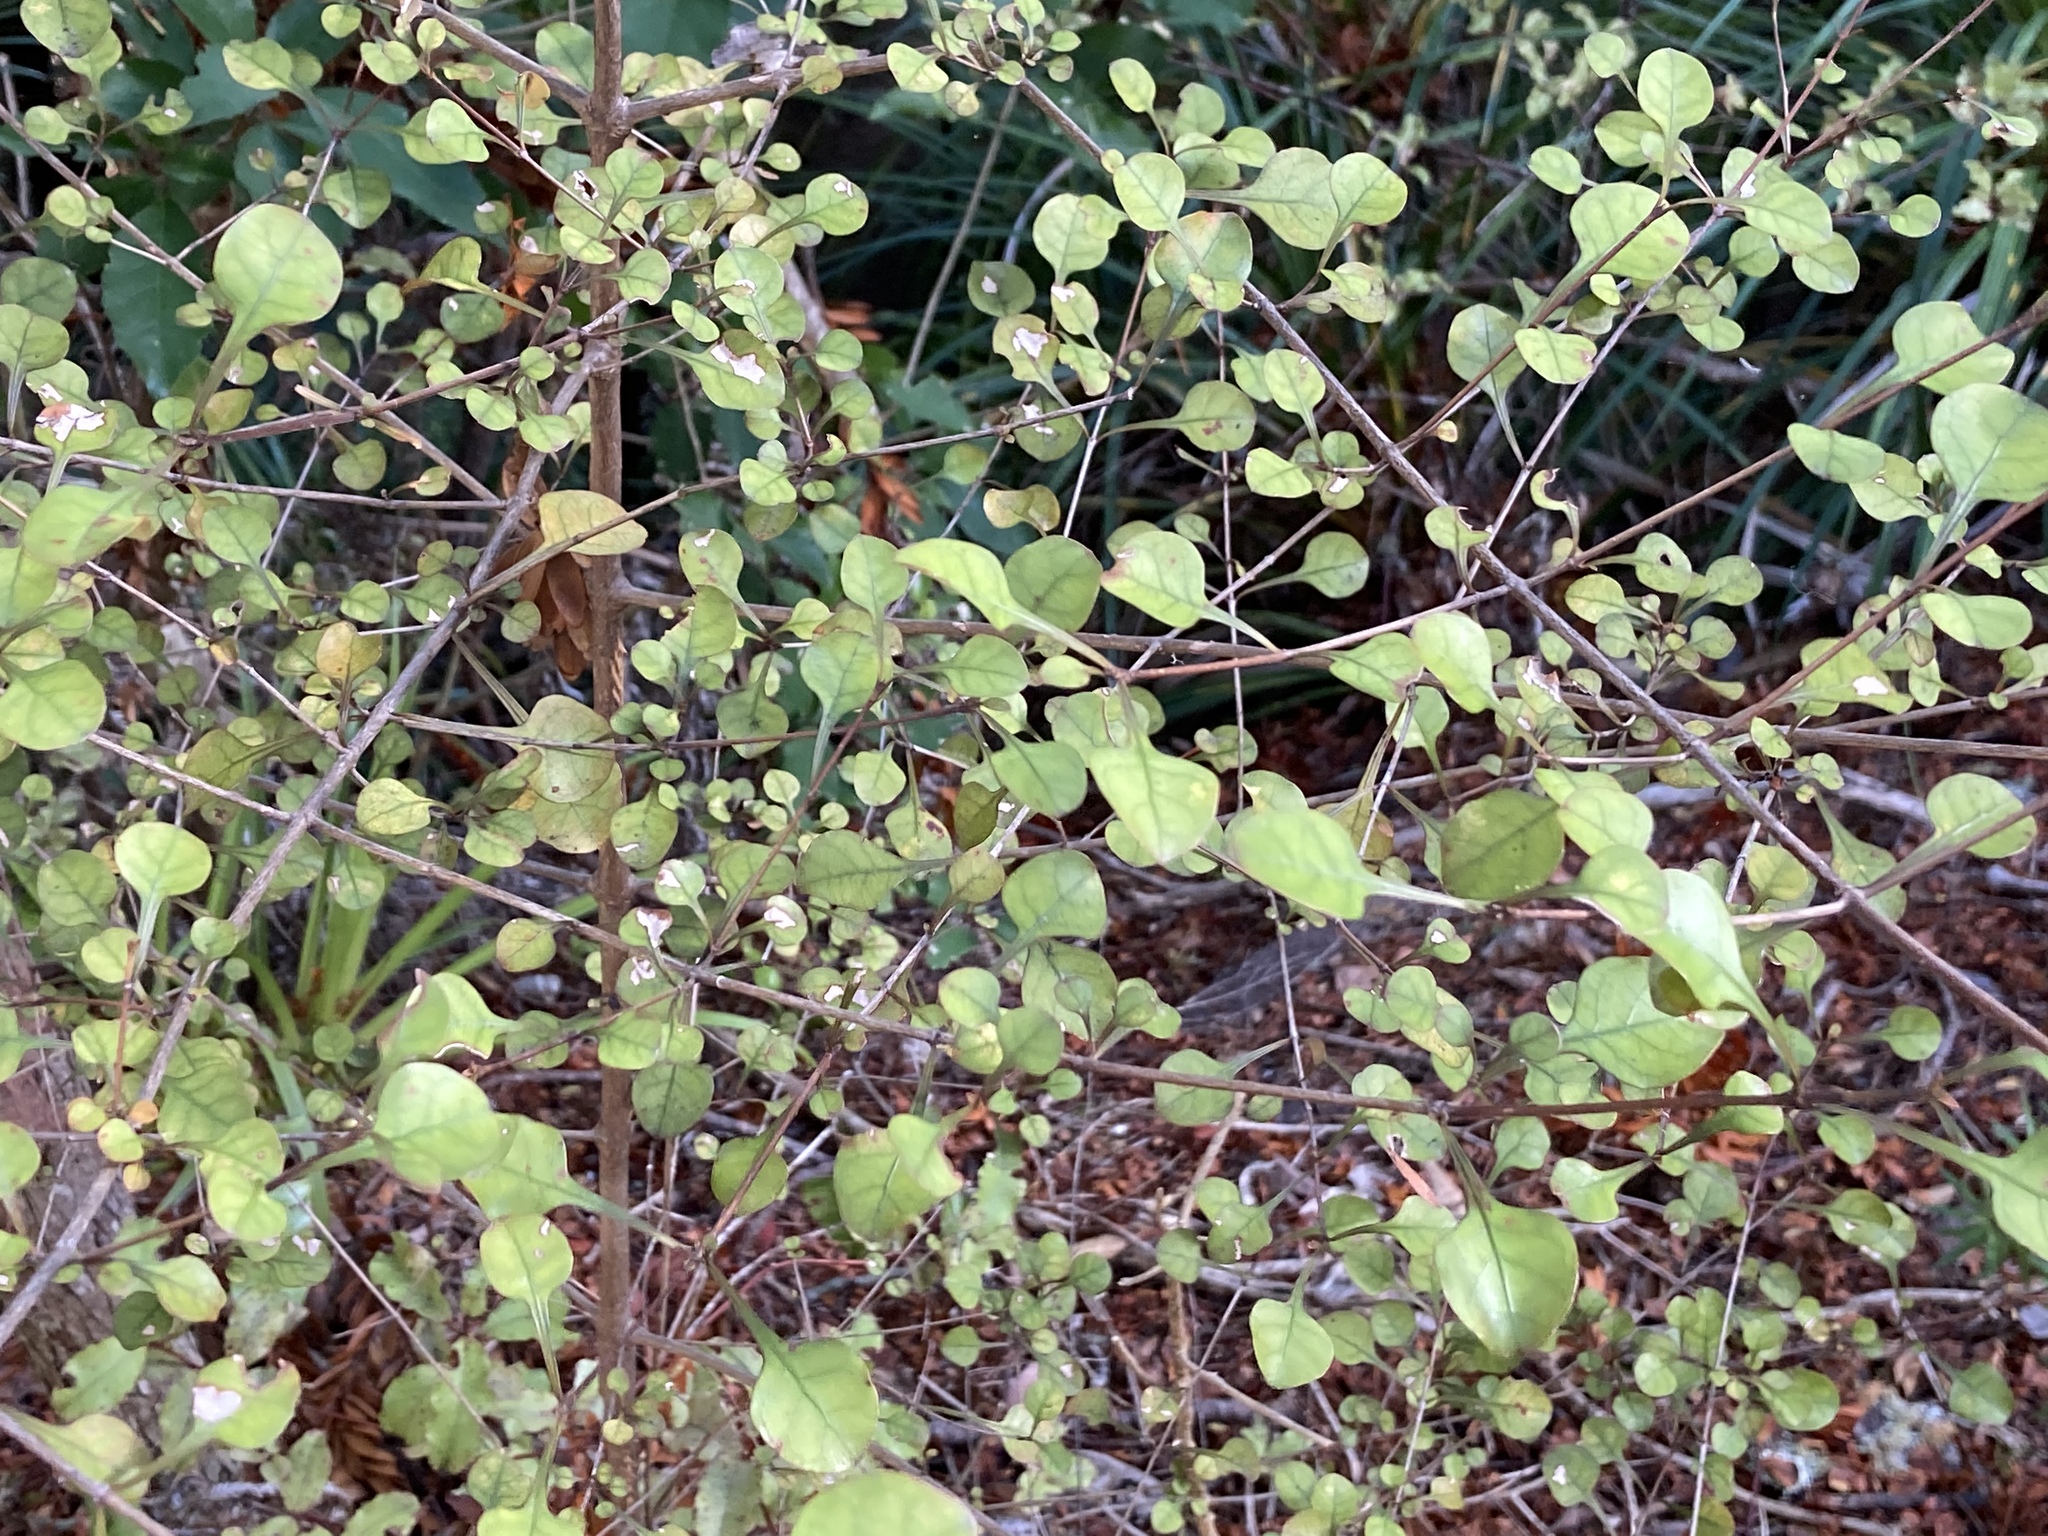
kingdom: Plantae
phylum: Tracheophyta
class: Magnoliopsida
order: Gentianales
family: Rubiaceae
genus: Coprosma
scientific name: Coprosma arborea
